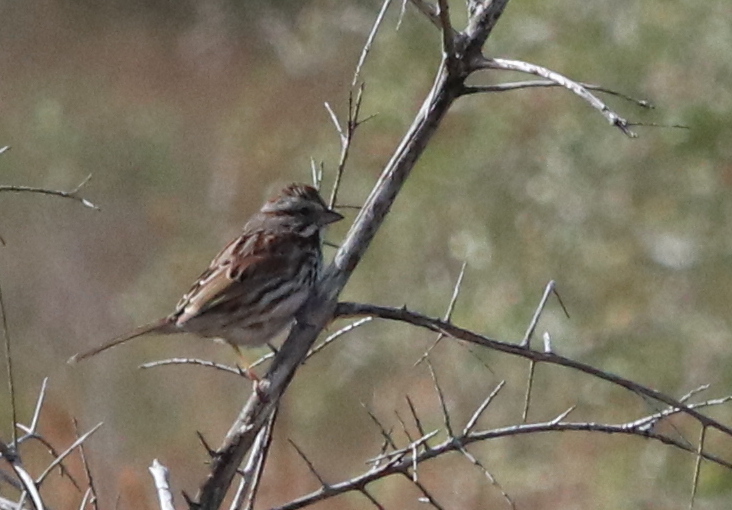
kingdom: Animalia
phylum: Chordata
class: Aves
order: Passeriformes
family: Passerellidae
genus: Melospiza
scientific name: Melospiza melodia
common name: Song sparrow
